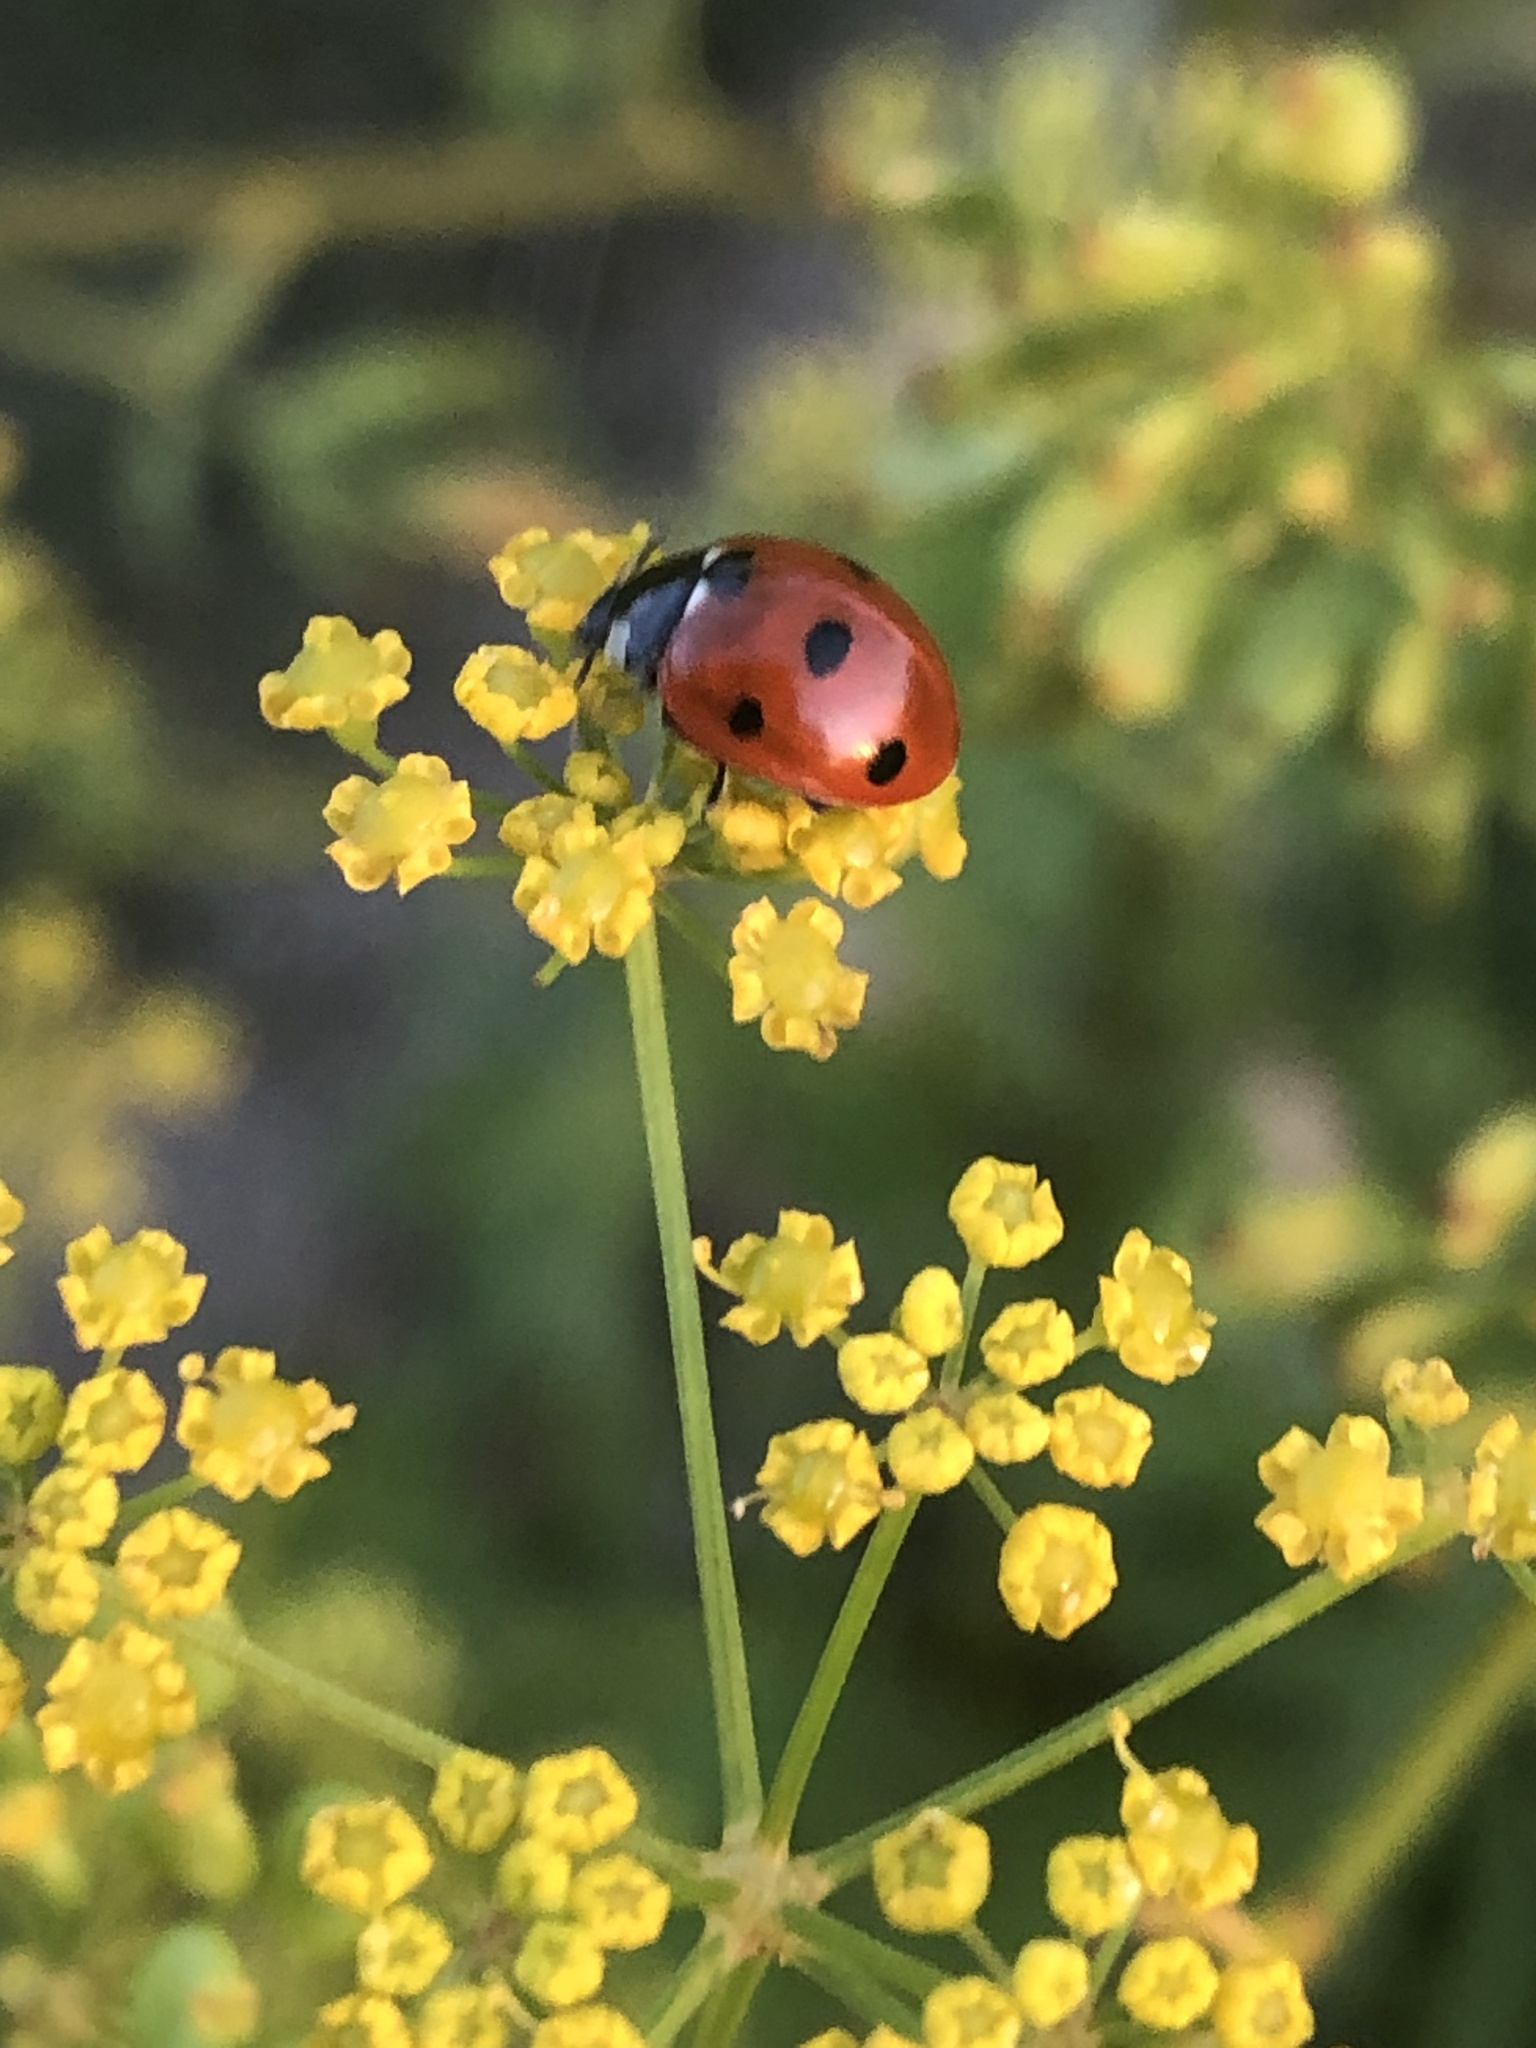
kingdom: Animalia
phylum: Arthropoda
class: Insecta
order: Coleoptera
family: Coccinellidae
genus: Coccinella
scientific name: Coccinella septempunctata
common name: Sevenspotted lady beetle
